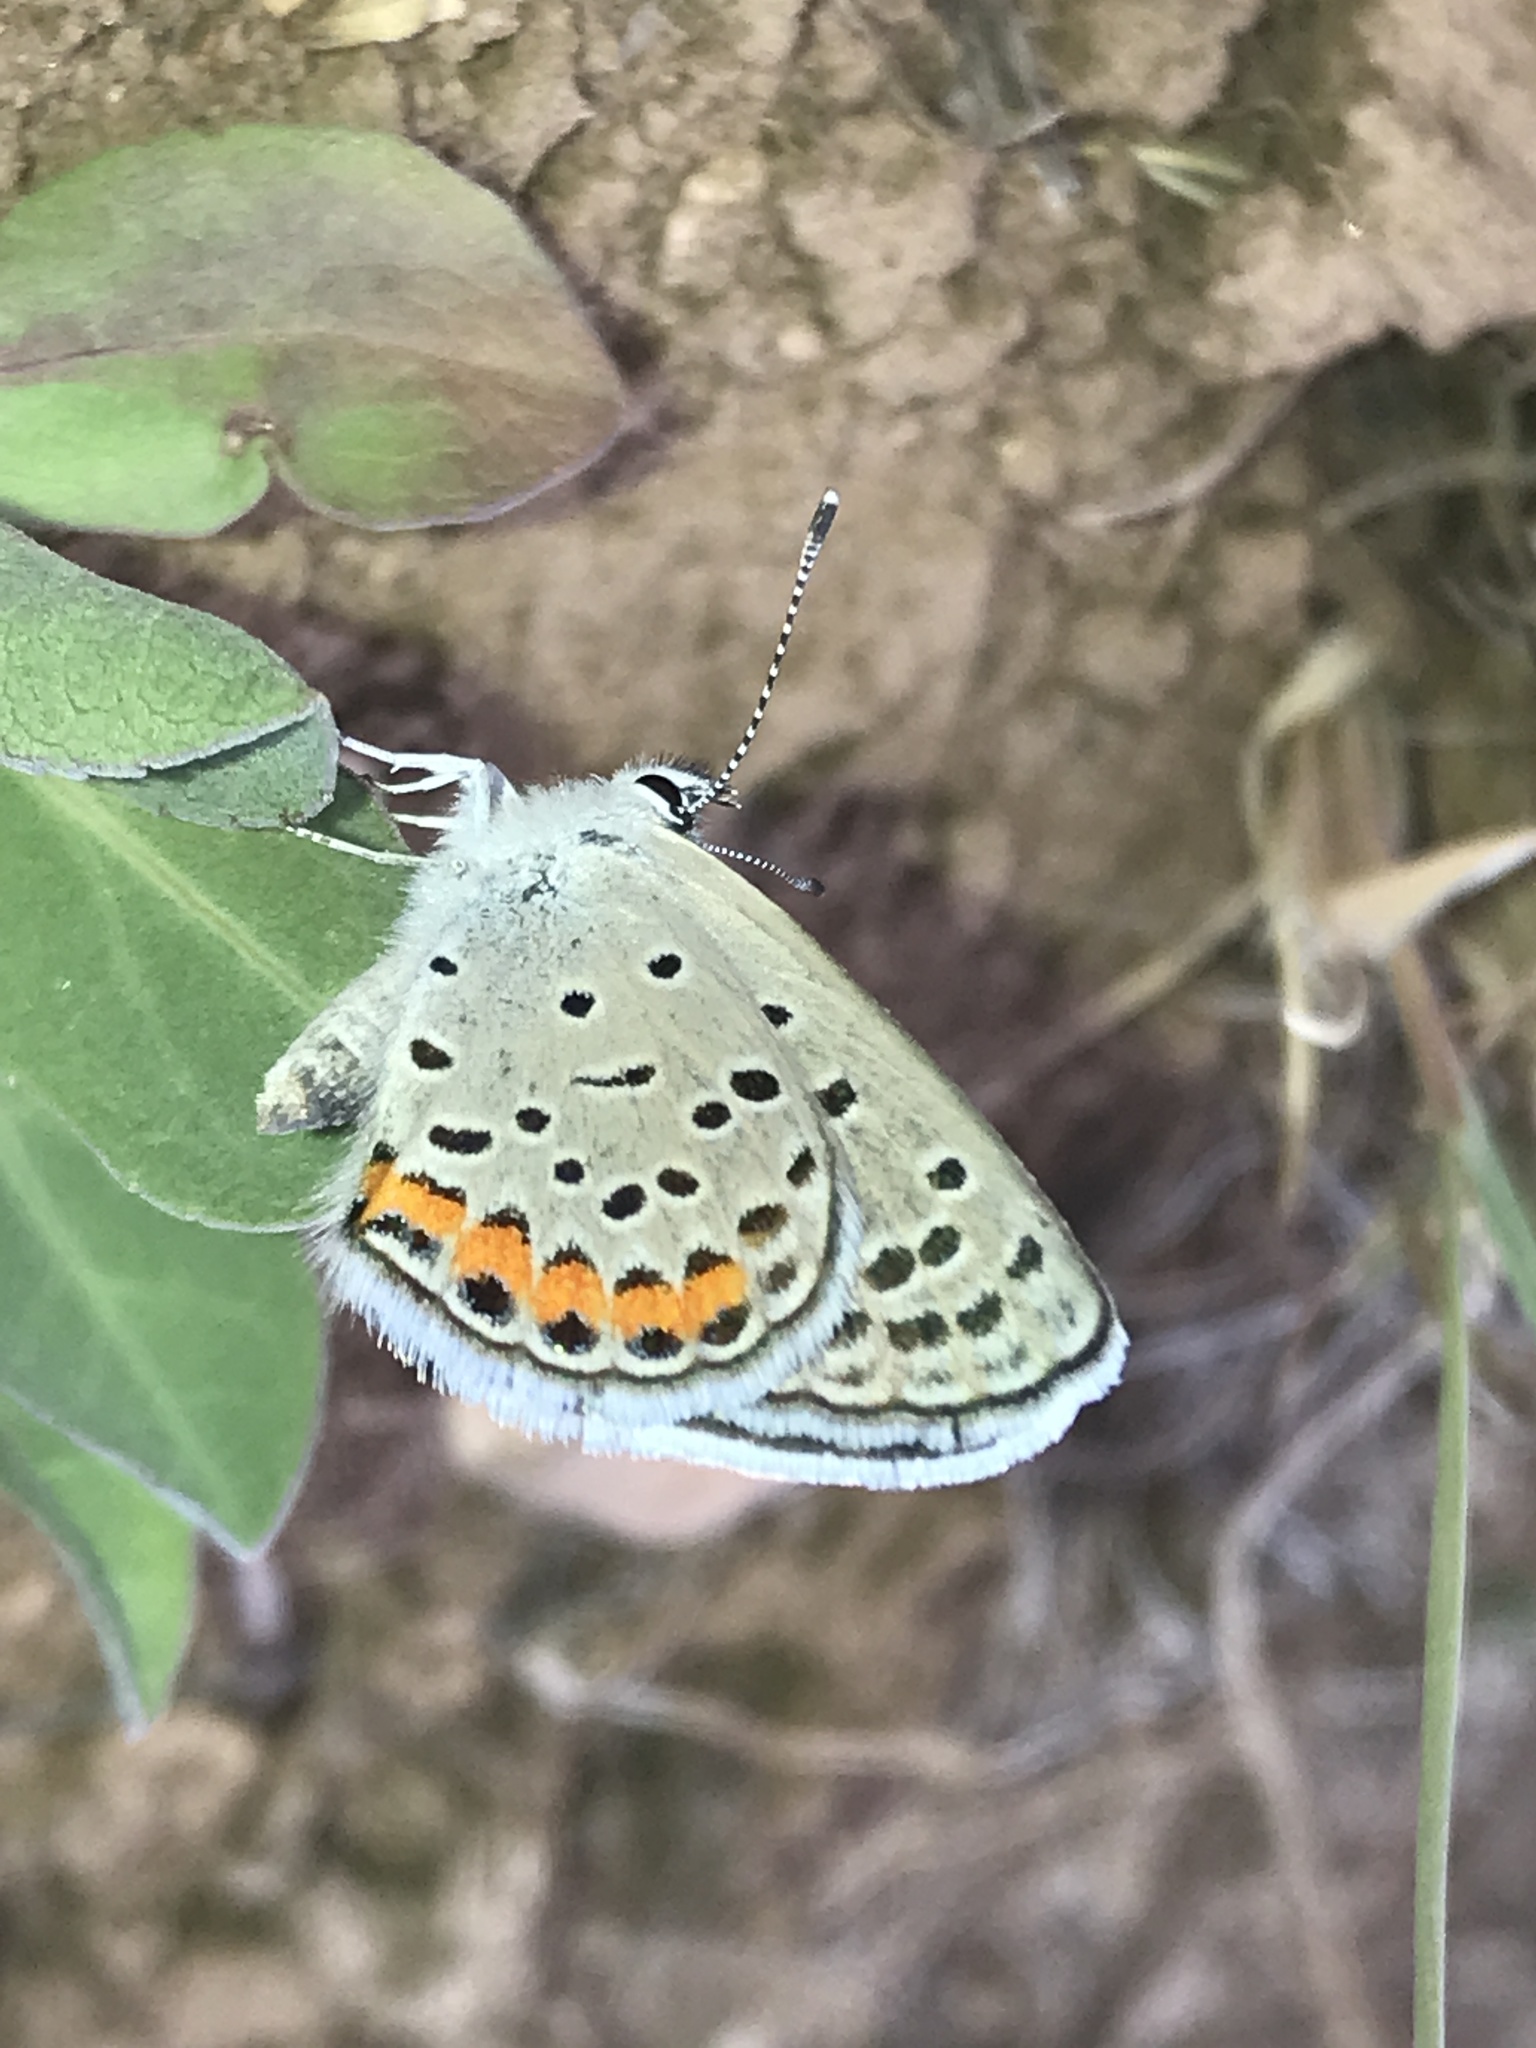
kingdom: Animalia
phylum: Arthropoda
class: Insecta
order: Lepidoptera
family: Lycaenidae
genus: Icaricia
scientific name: Icaricia lupini
